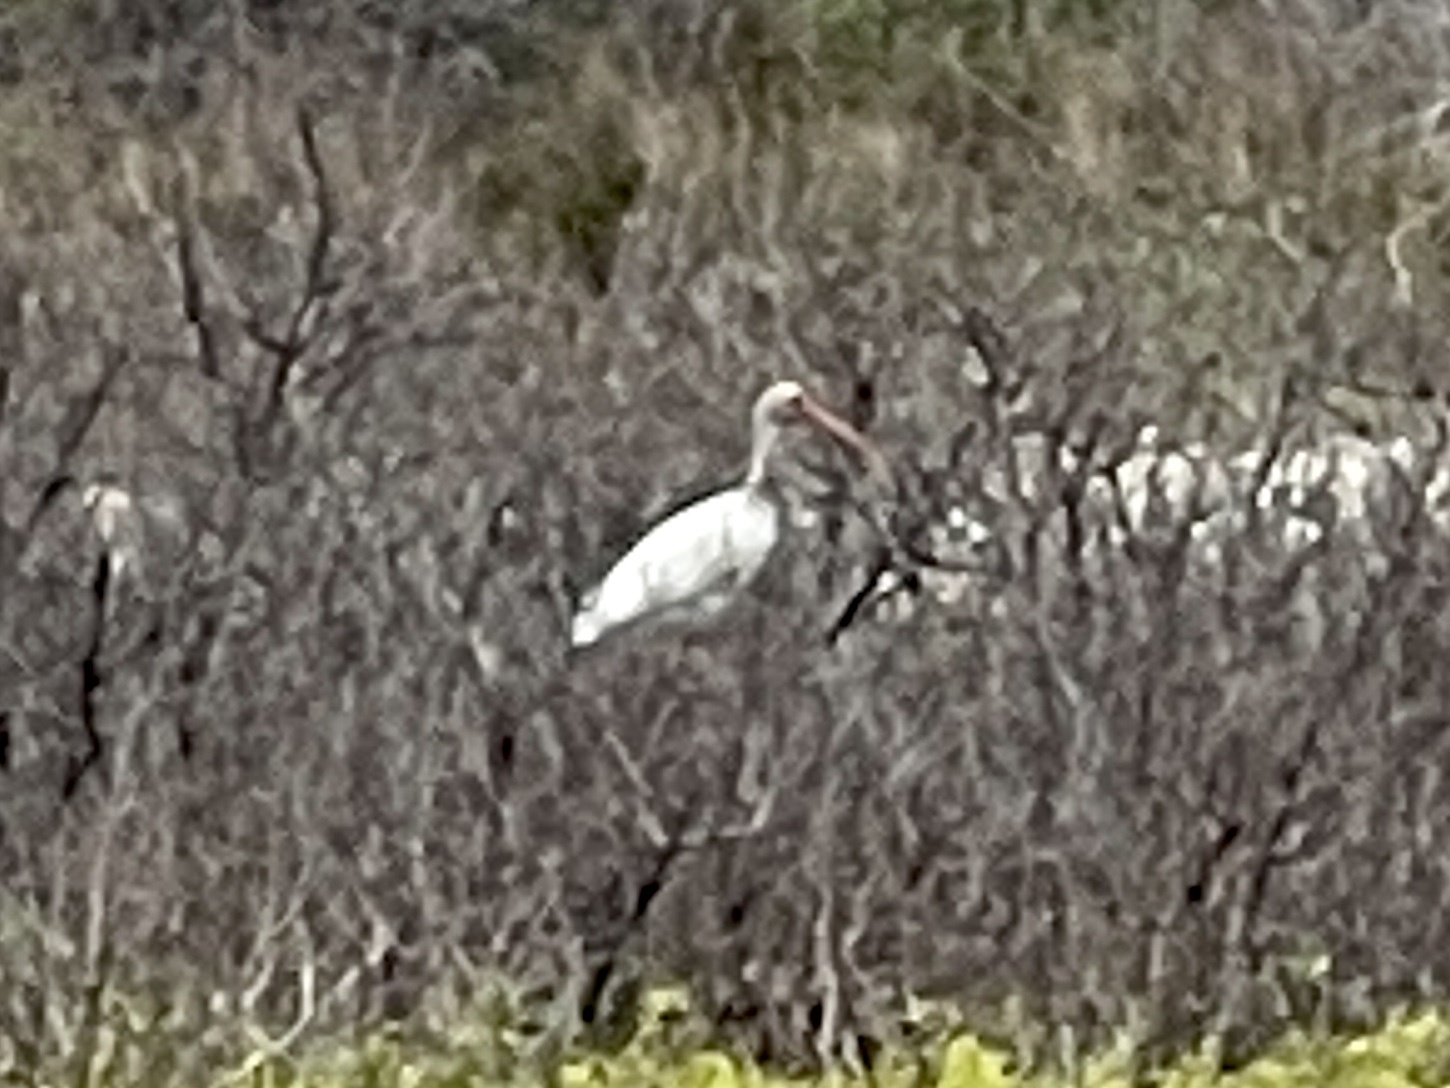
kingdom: Animalia
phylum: Chordata
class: Aves
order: Pelecaniformes
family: Threskiornithidae
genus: Eudocimus
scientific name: Eudocimus albus
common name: White ibis
